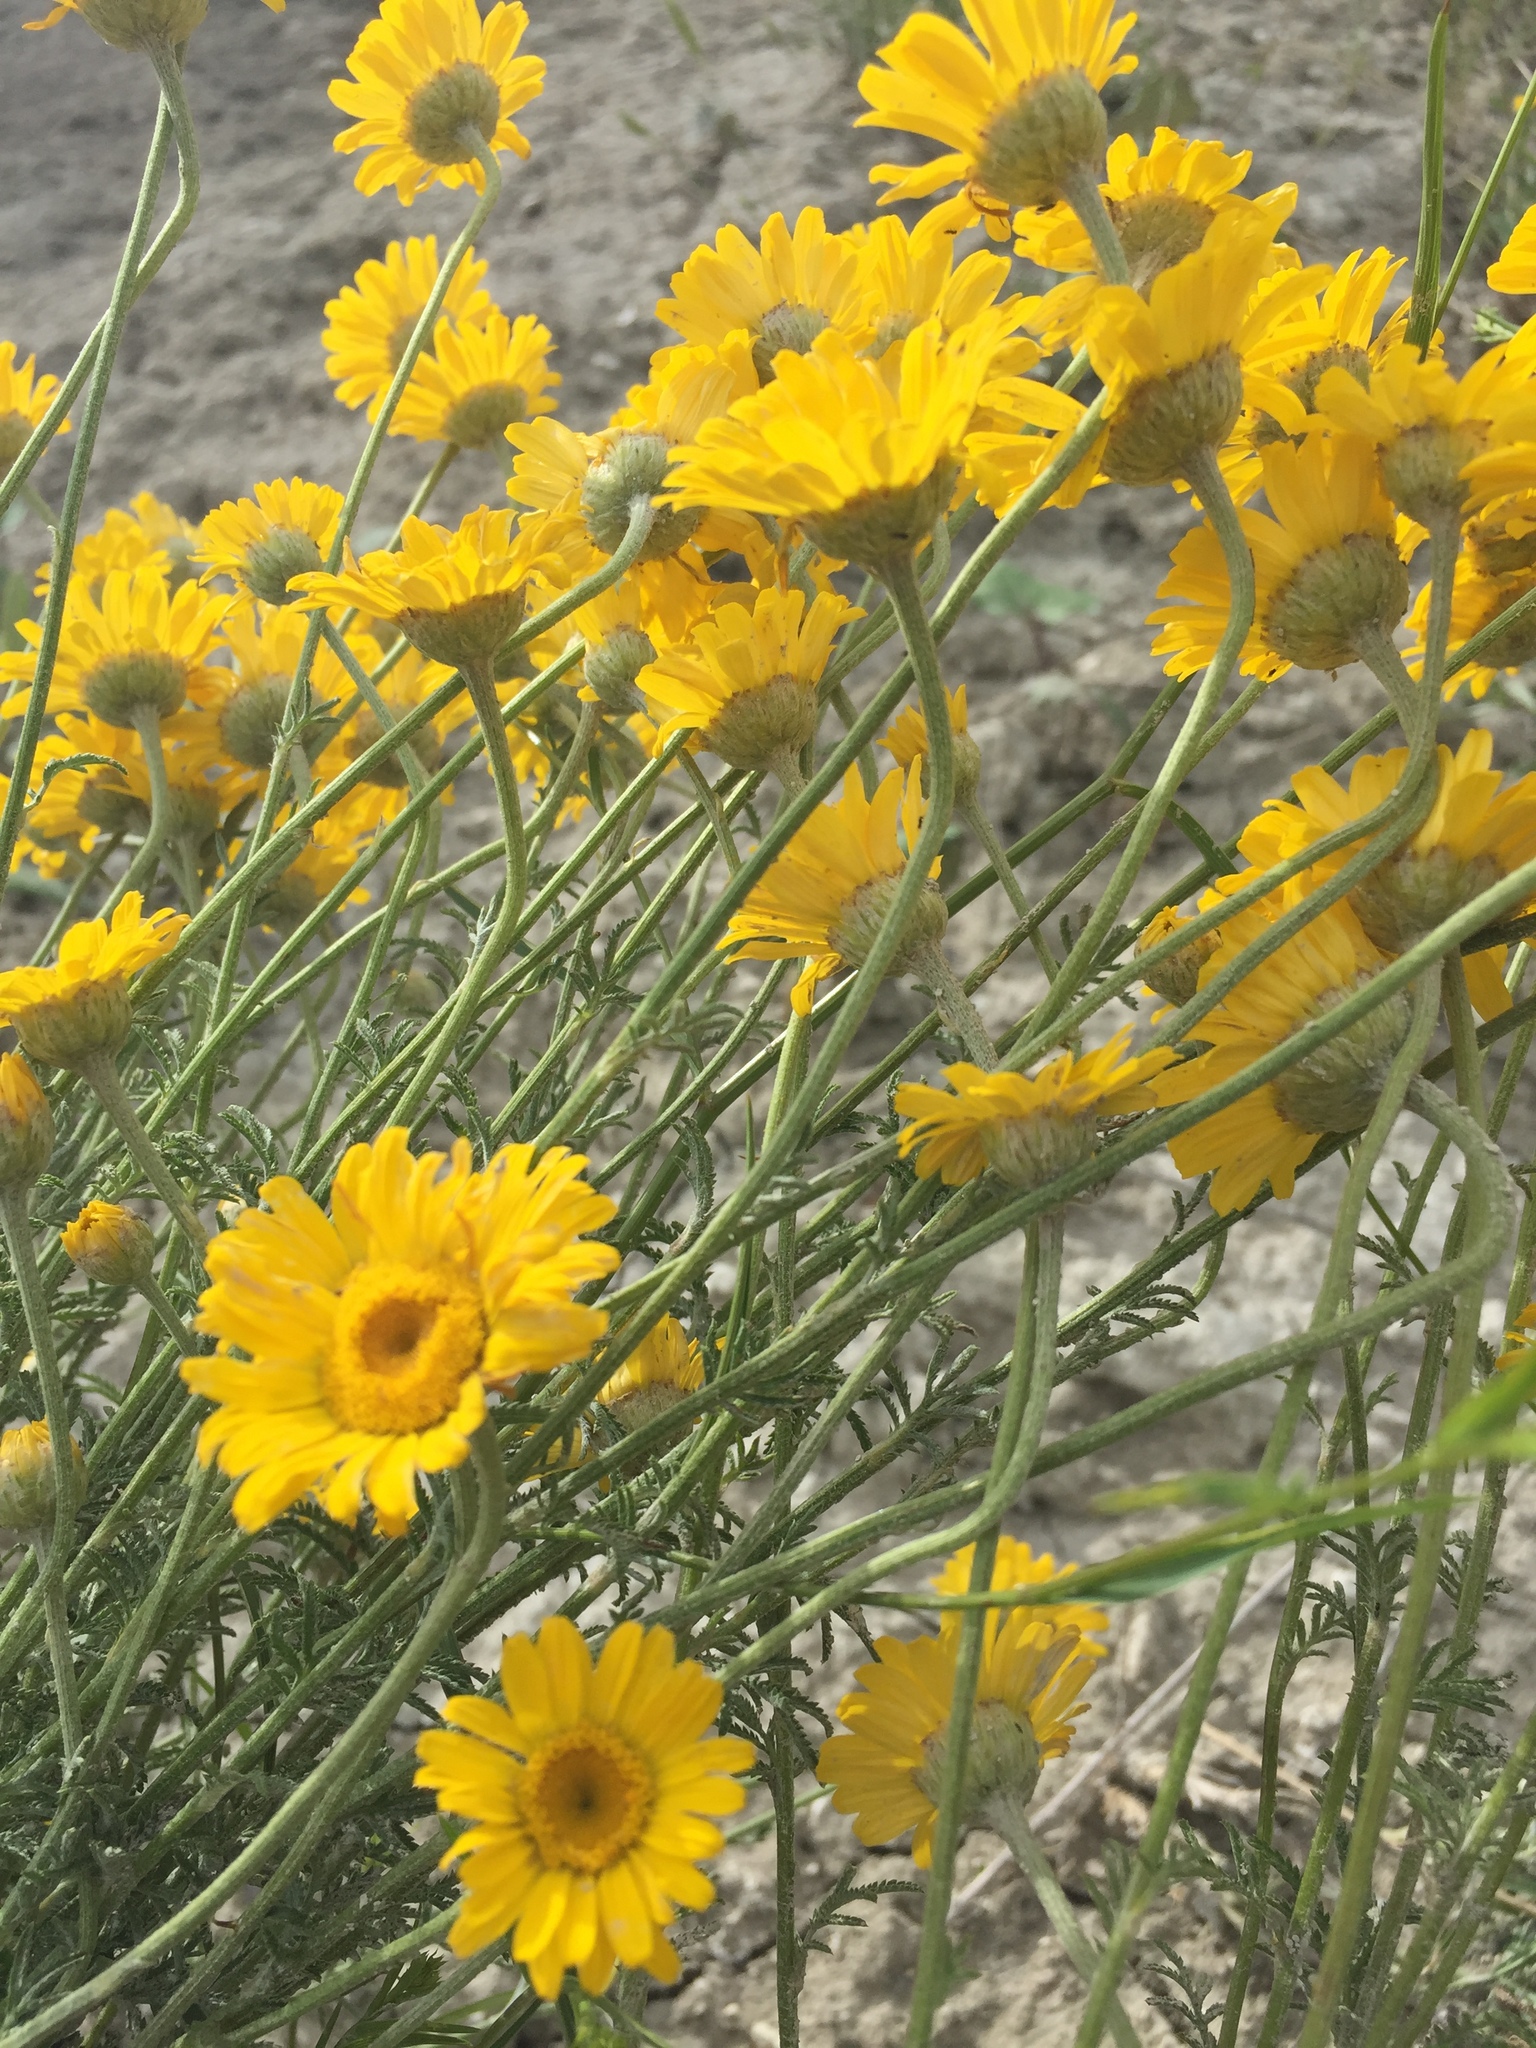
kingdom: Plantae
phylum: Tracheophyta
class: Magnoliopsida
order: Asterales
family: Asteraceae
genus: Cota
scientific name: Cota tinctoria
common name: Golden chamomile
